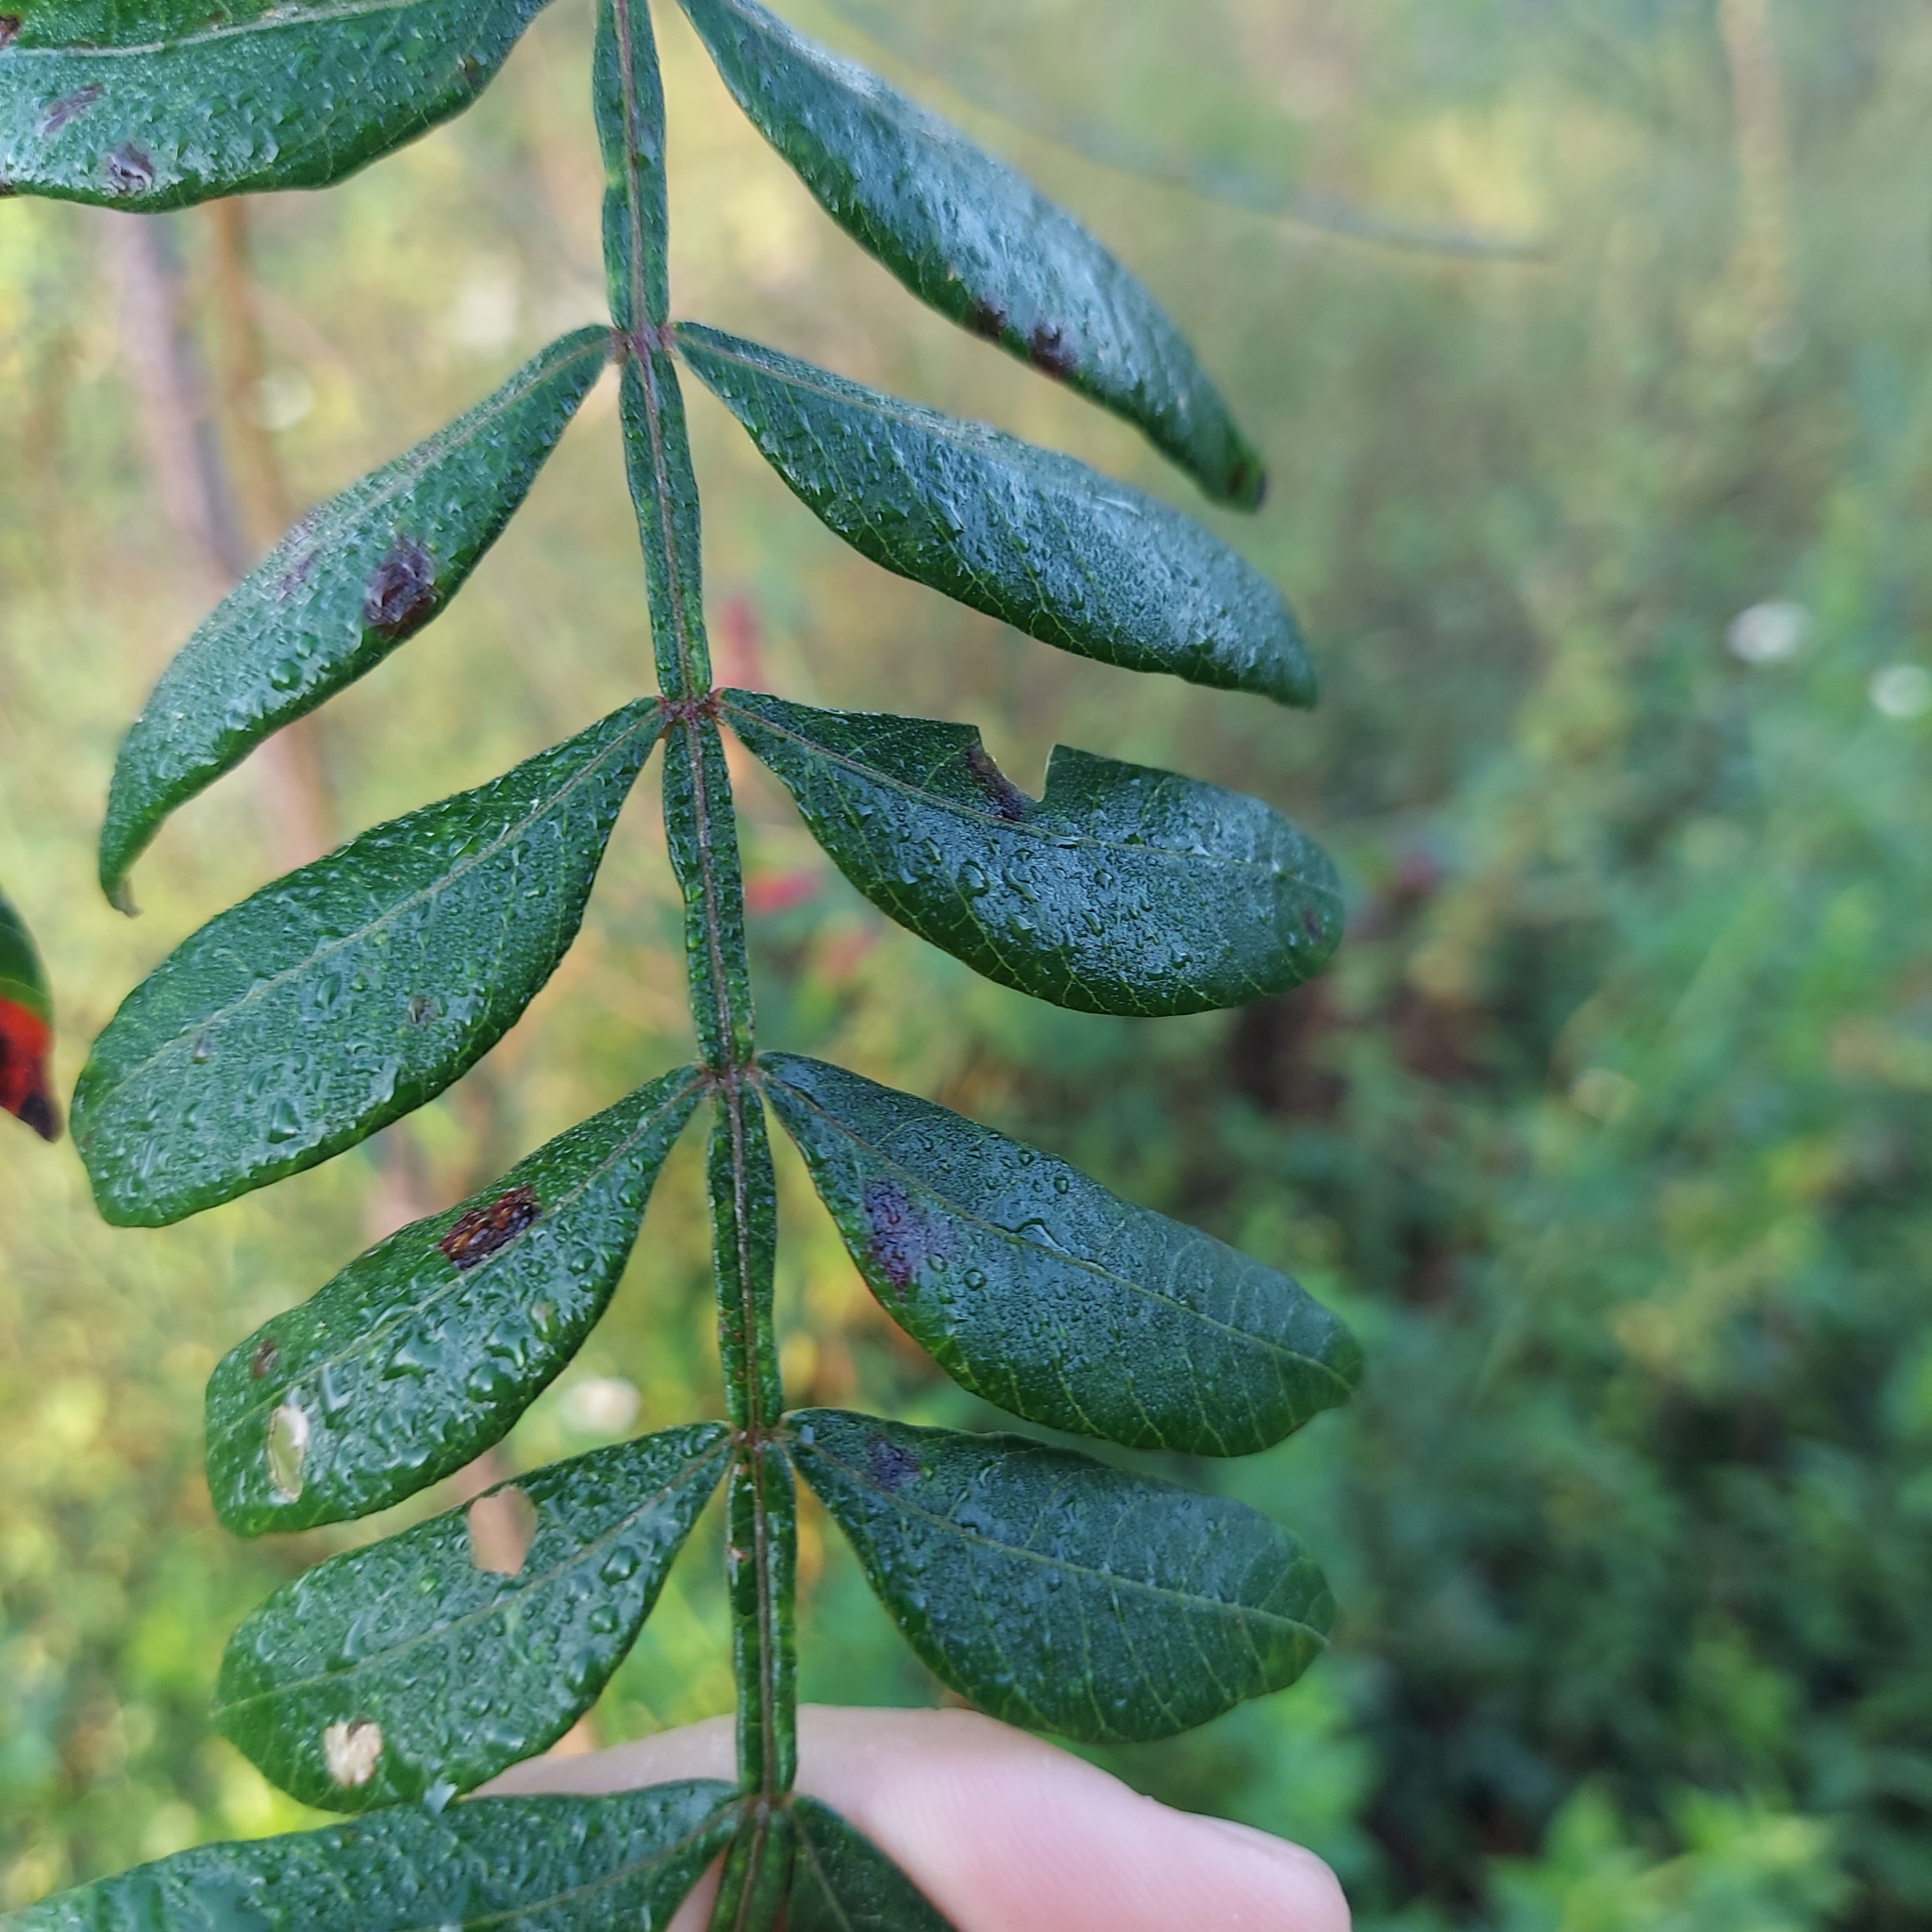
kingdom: Plantae
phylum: Tracheophyta
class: Magnoliopsida
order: Sapindales
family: Anacardiaceae
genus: Rhus
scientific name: Rhus copallina
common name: Shining sumac
